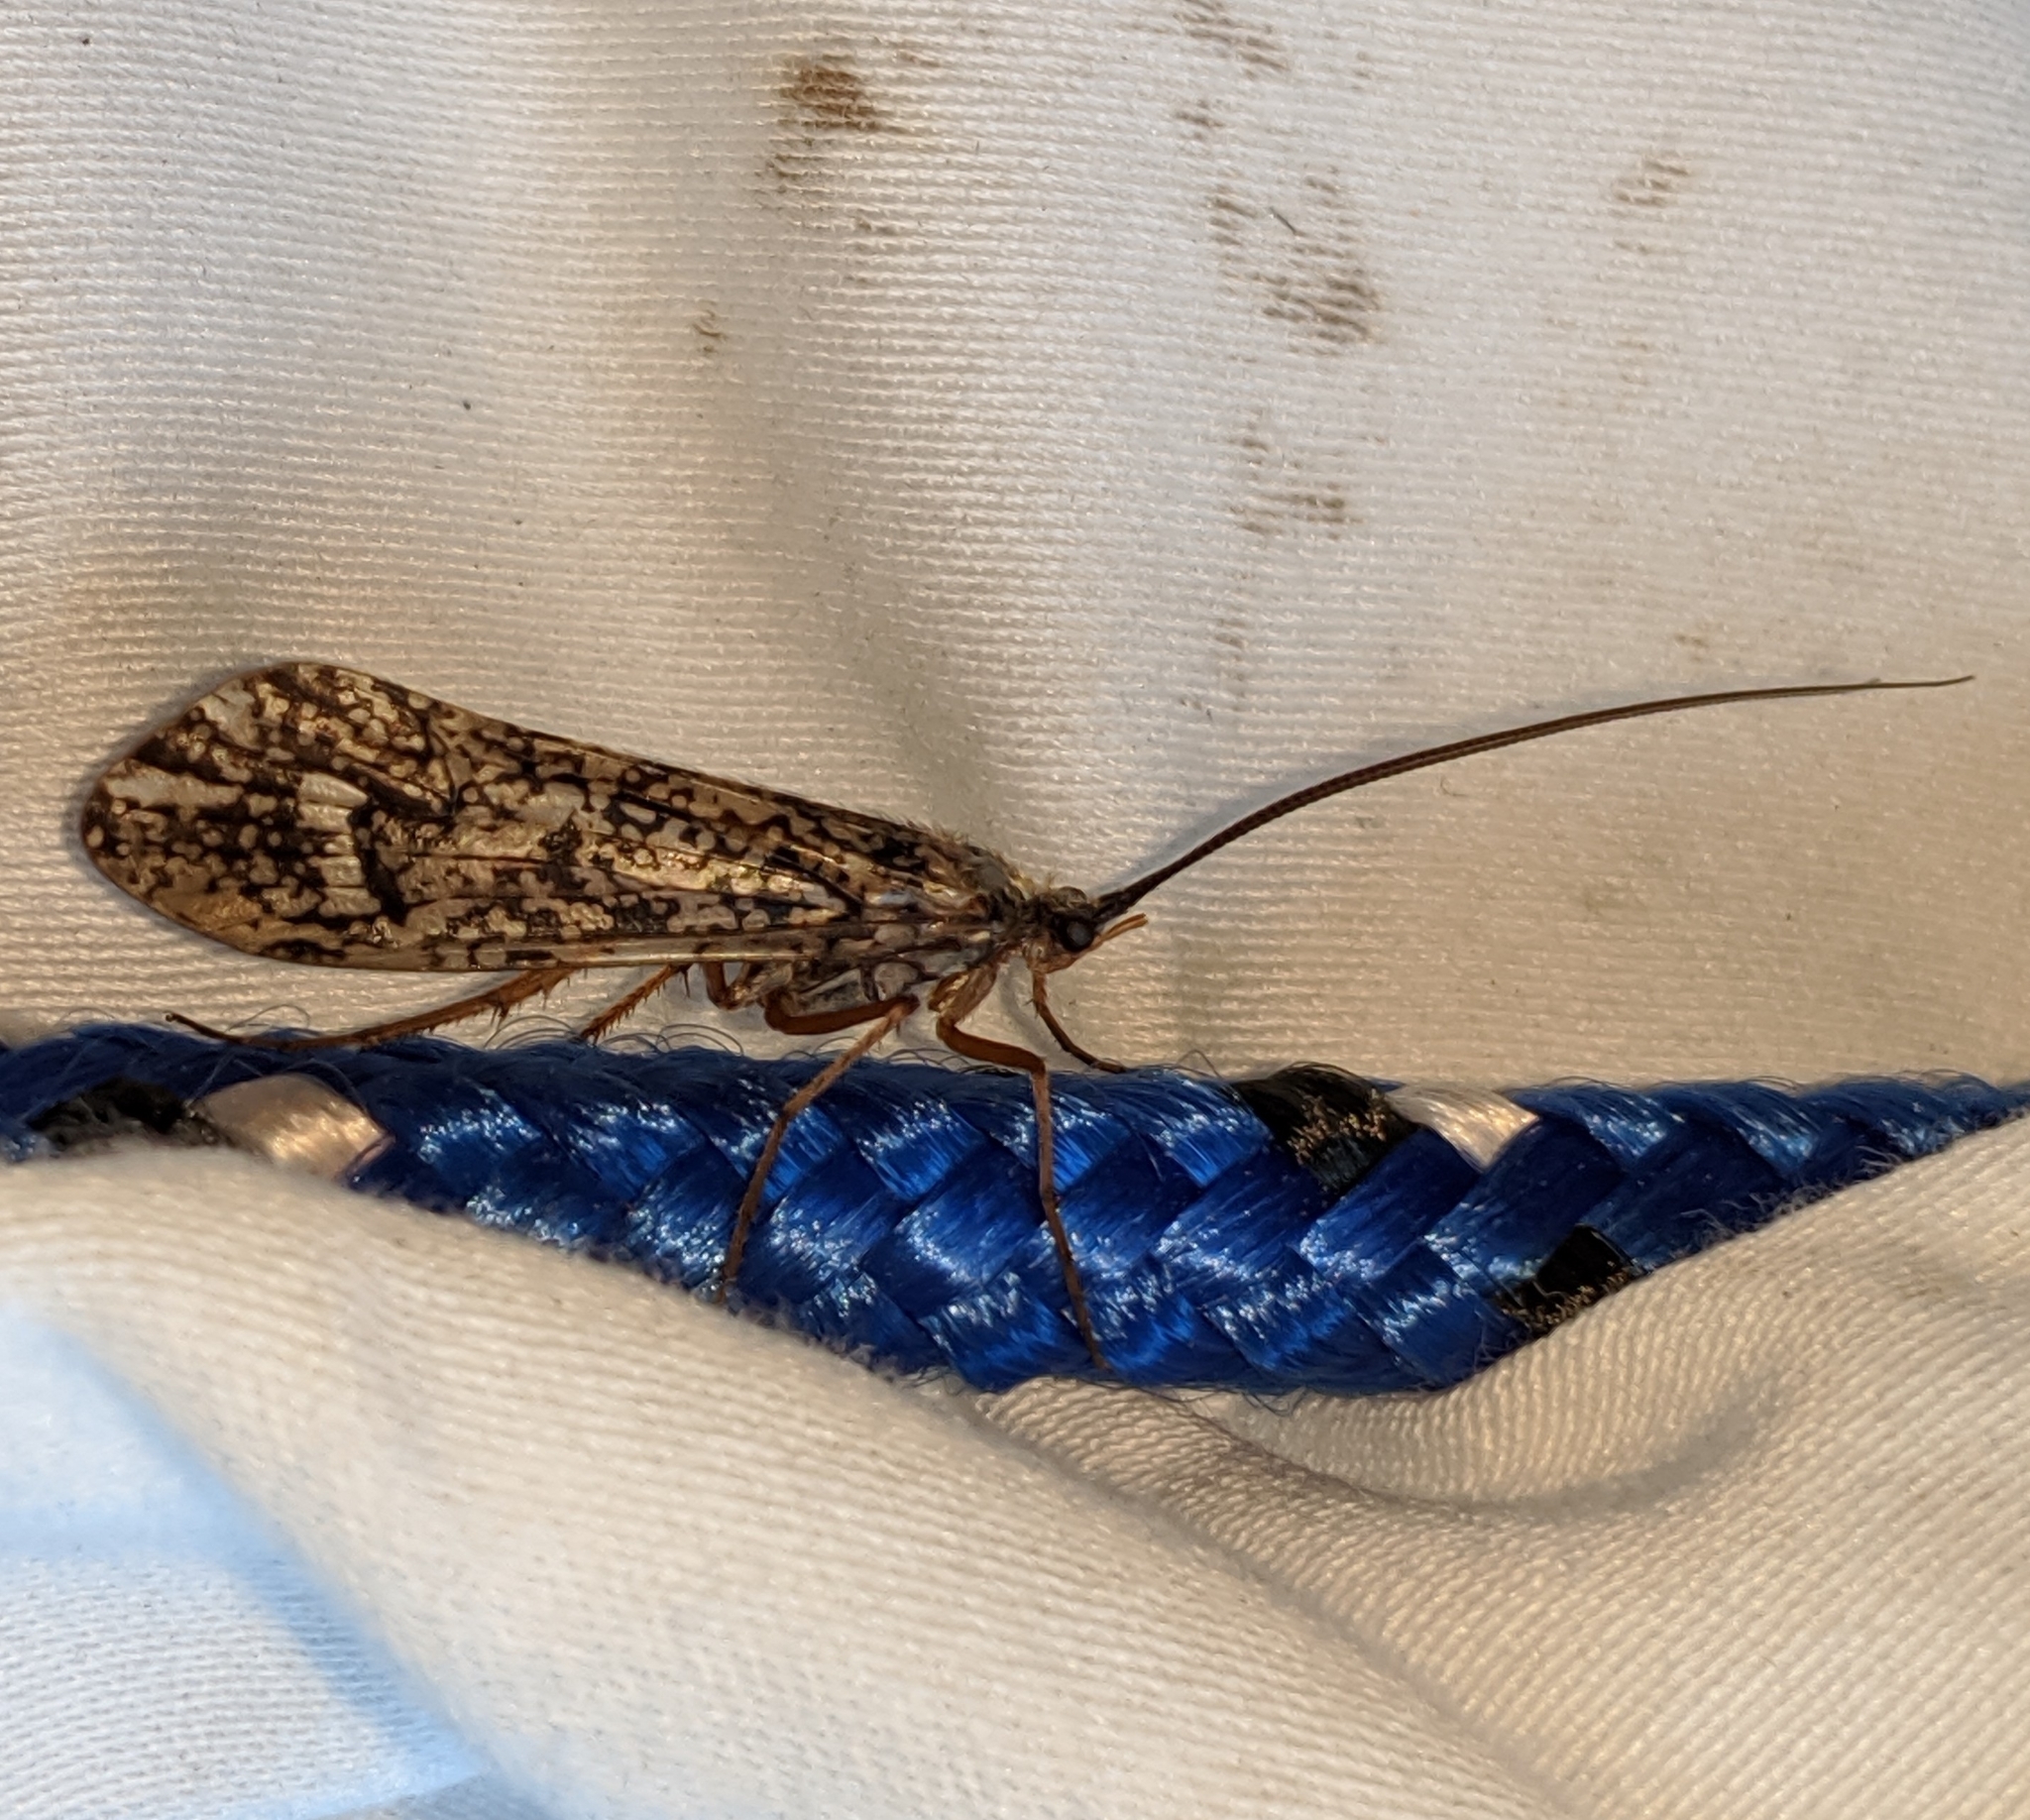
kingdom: Animalia
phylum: Arthropoda
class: Insecta
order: Trichoptera
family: Limnephilidae
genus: Clistoronia
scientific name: Clistoronia magnifica
